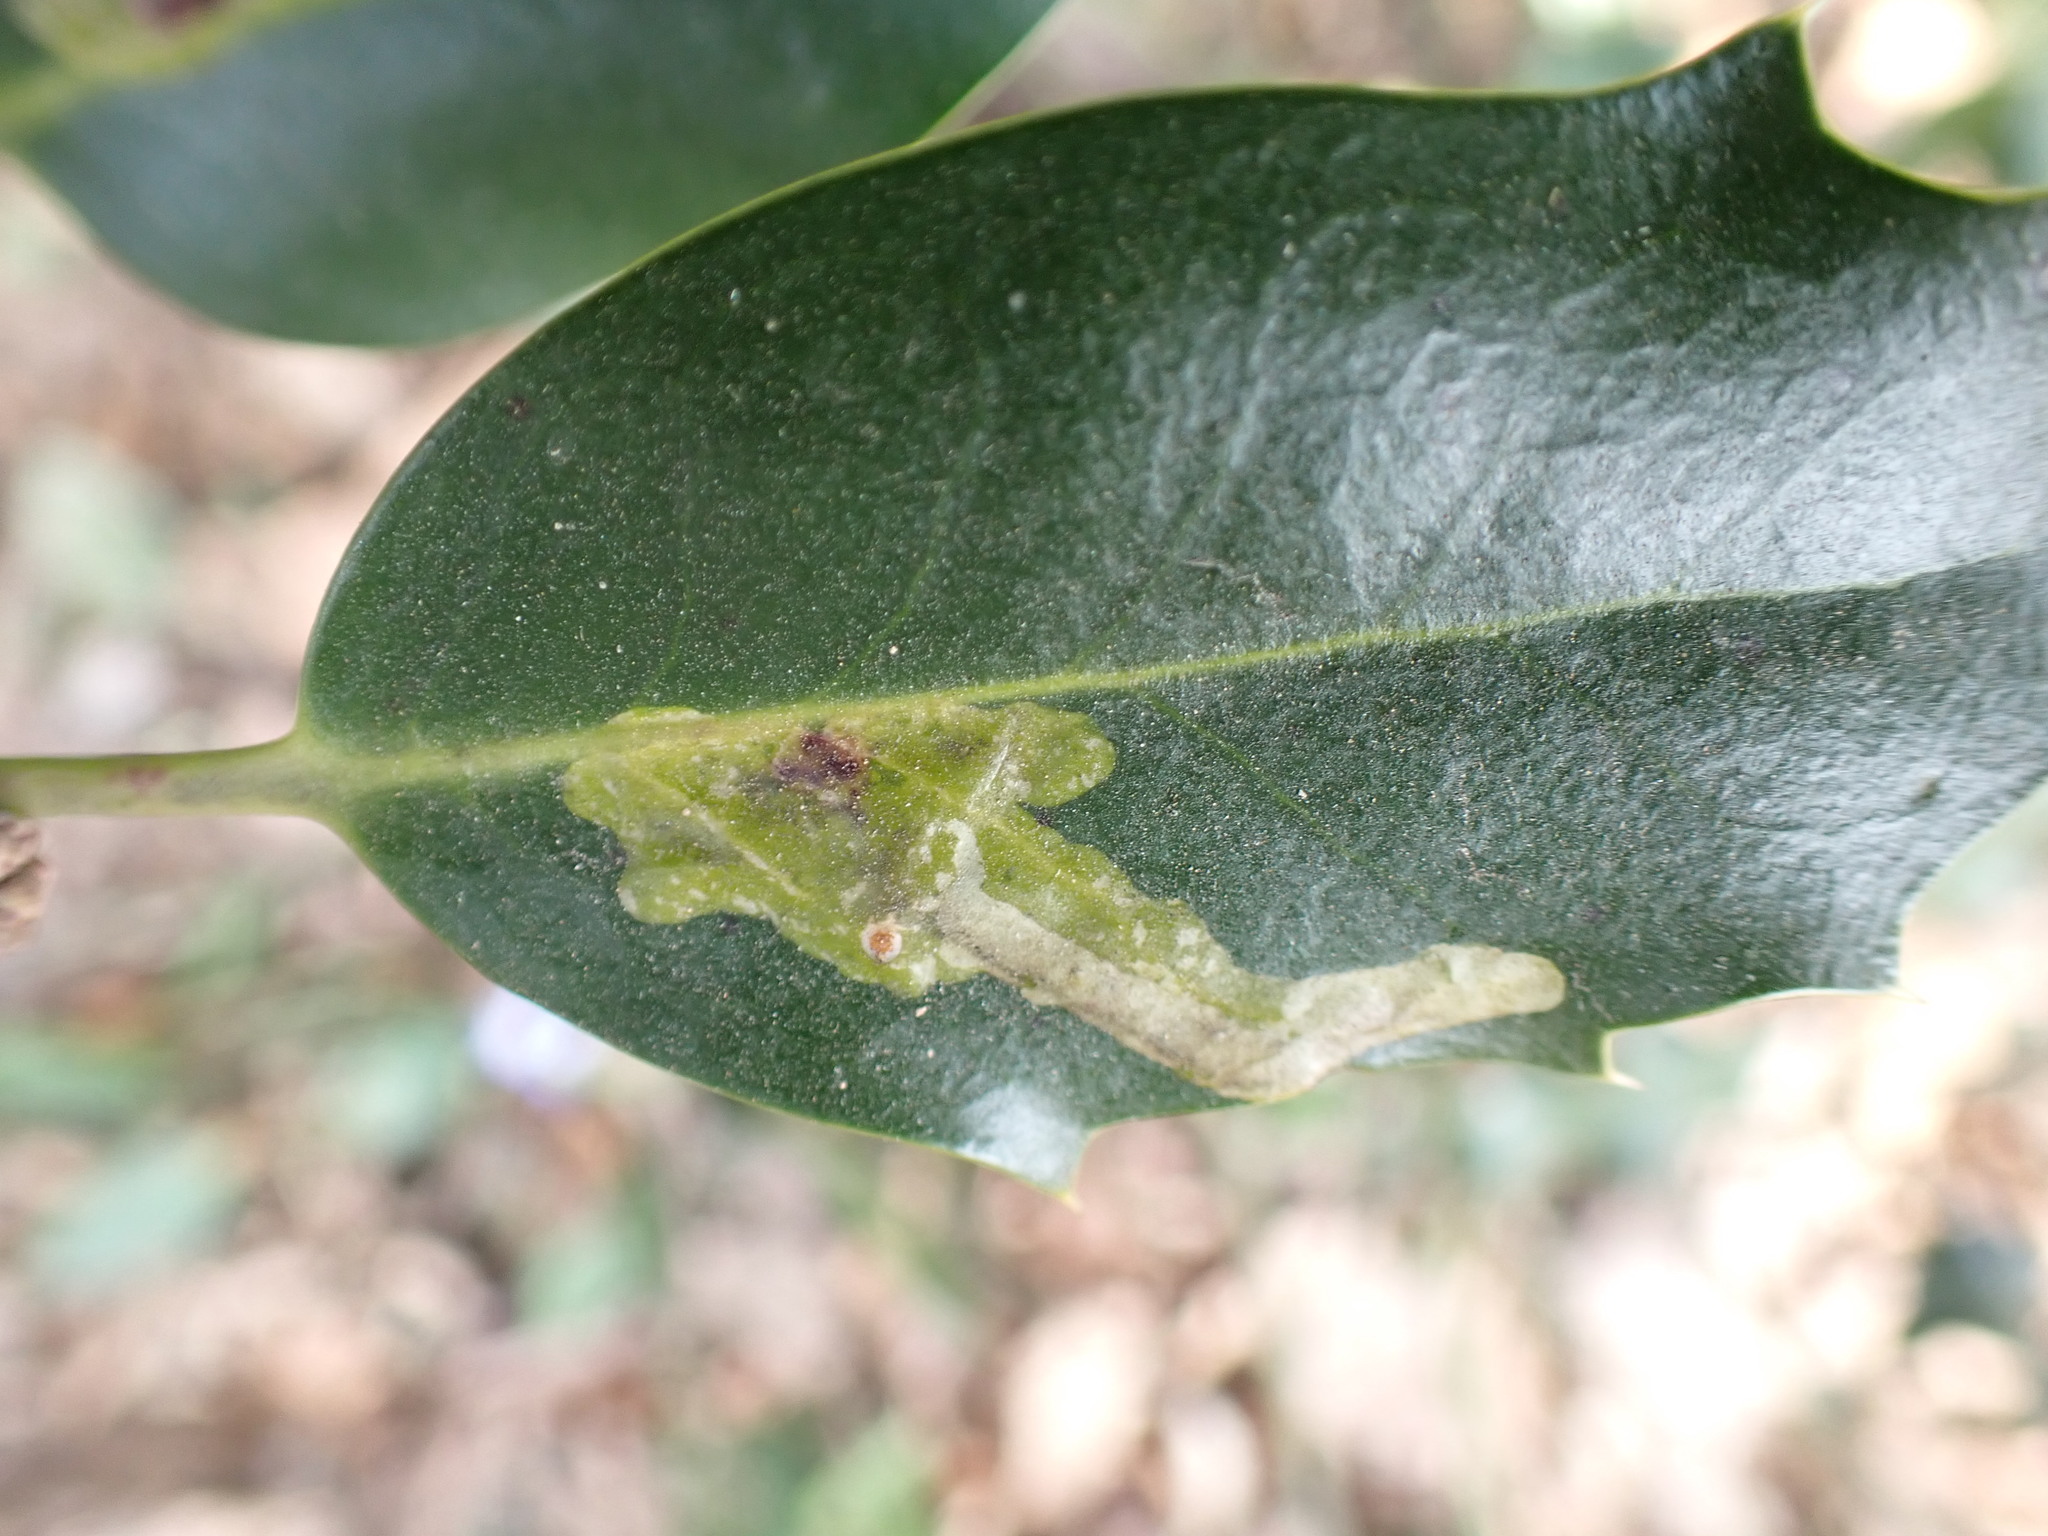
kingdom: Animalia
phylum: Arthropoda
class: Insecta
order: Diptera
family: Agromyzidae
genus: Phytomyza
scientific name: Phytomyza ilicis
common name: Holly leafminer
